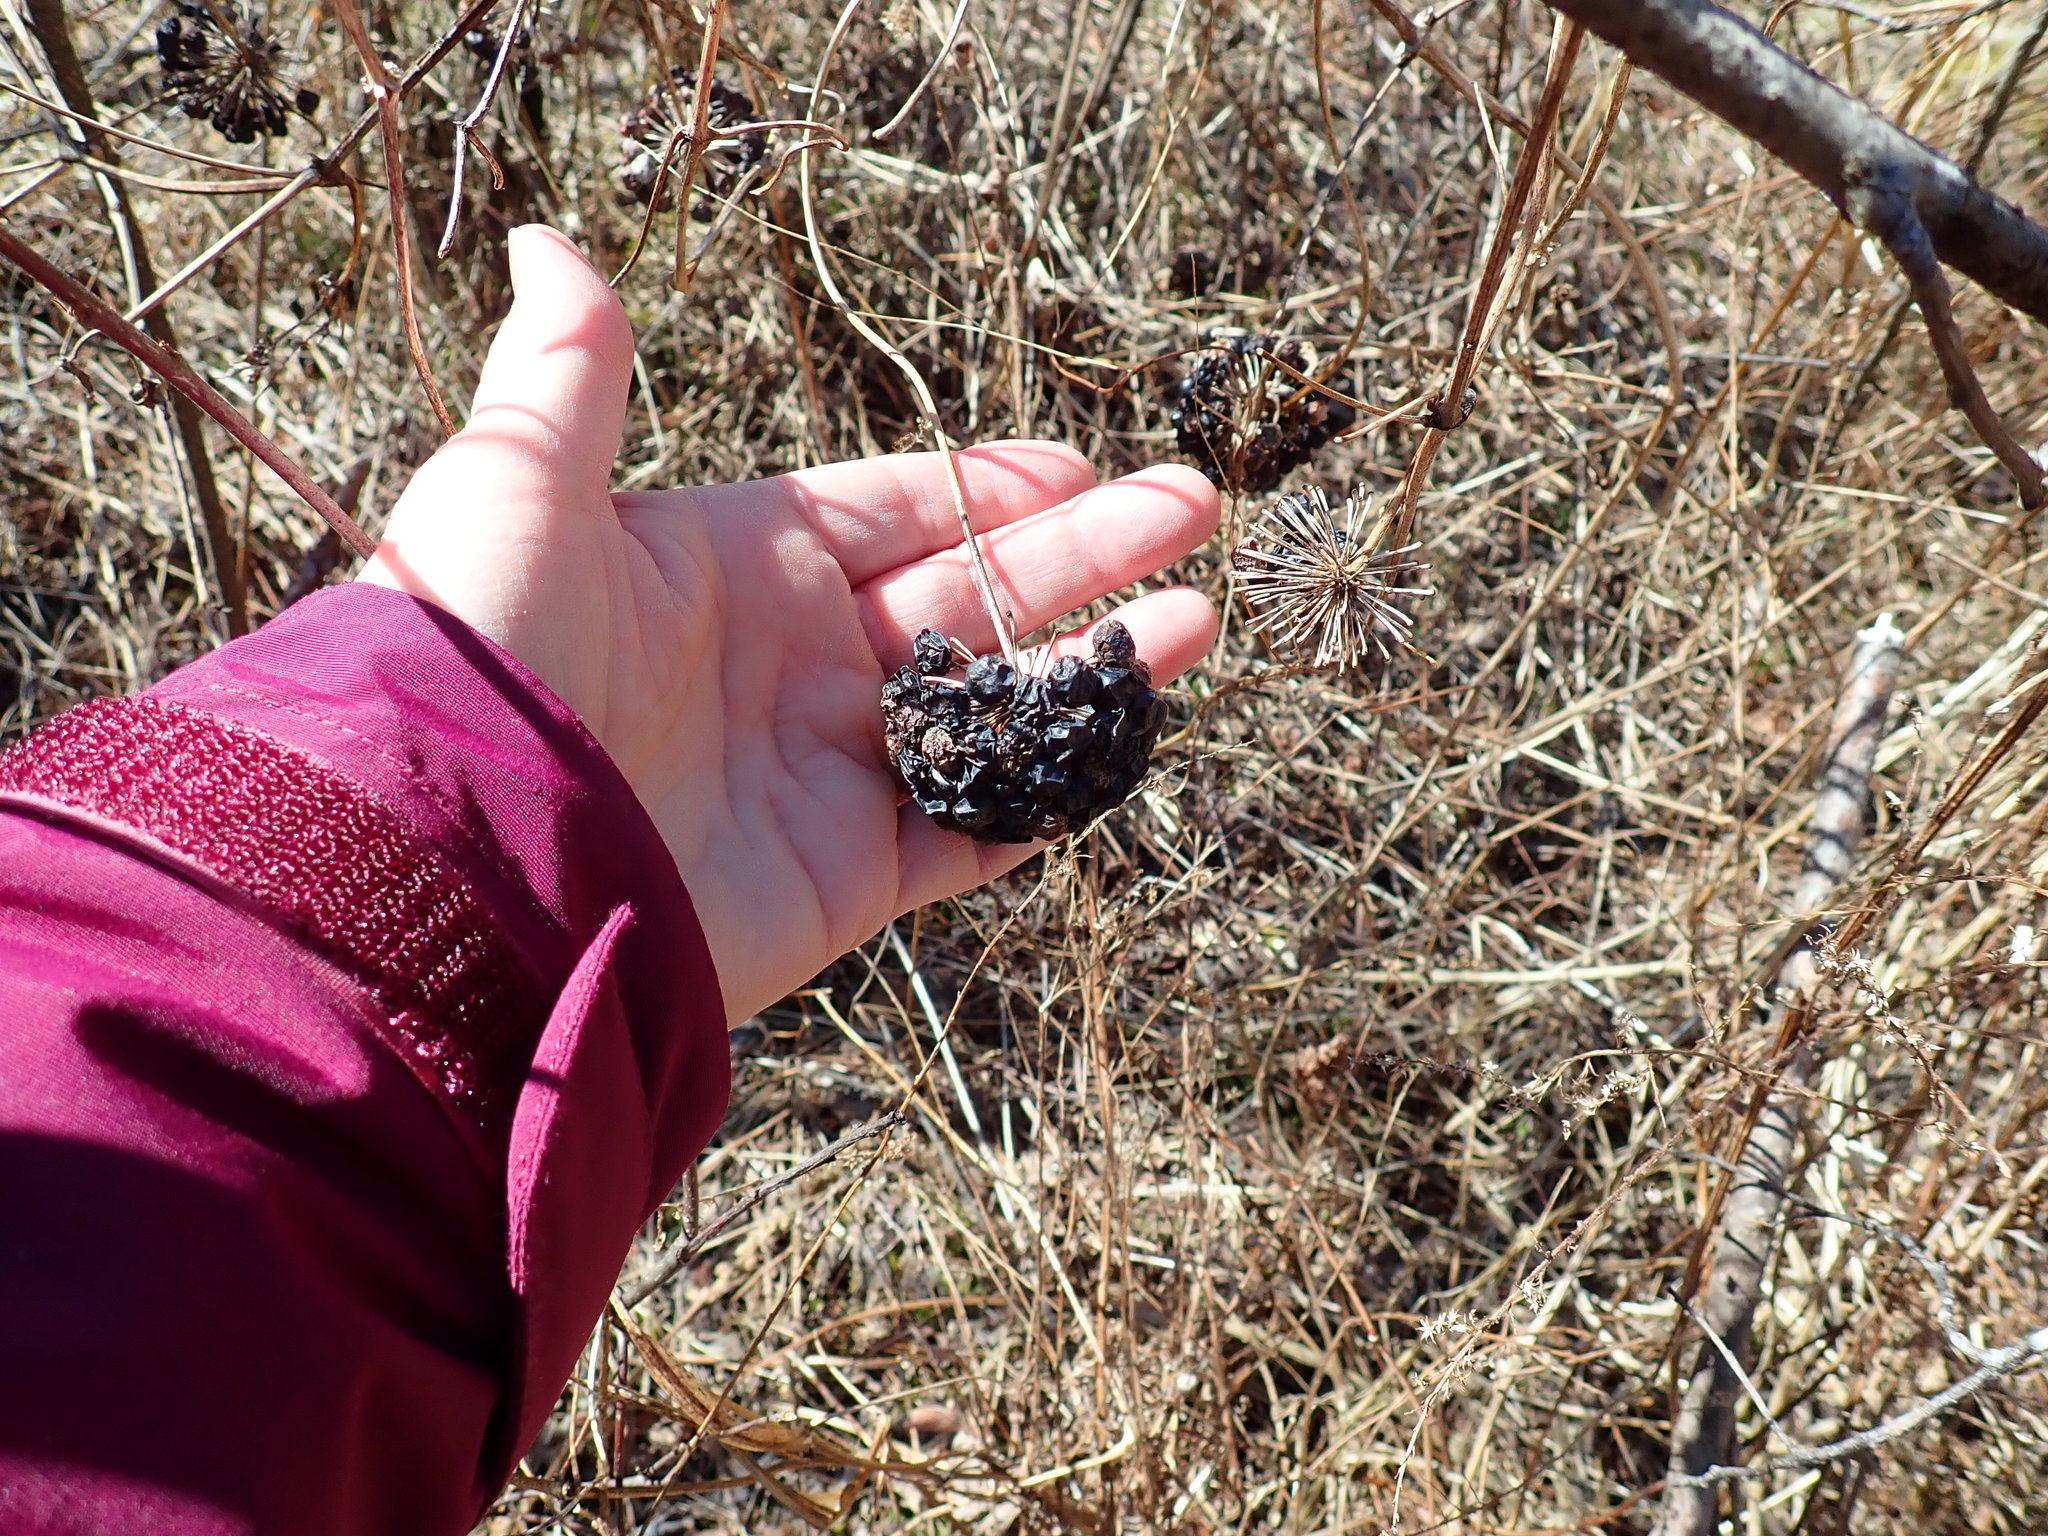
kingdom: Plantae
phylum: Tracheophyta
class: Liliopsida
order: Liliales
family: Smilacaceae
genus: Smilax
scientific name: Smilax herbacea
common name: Jacob's-ladder
